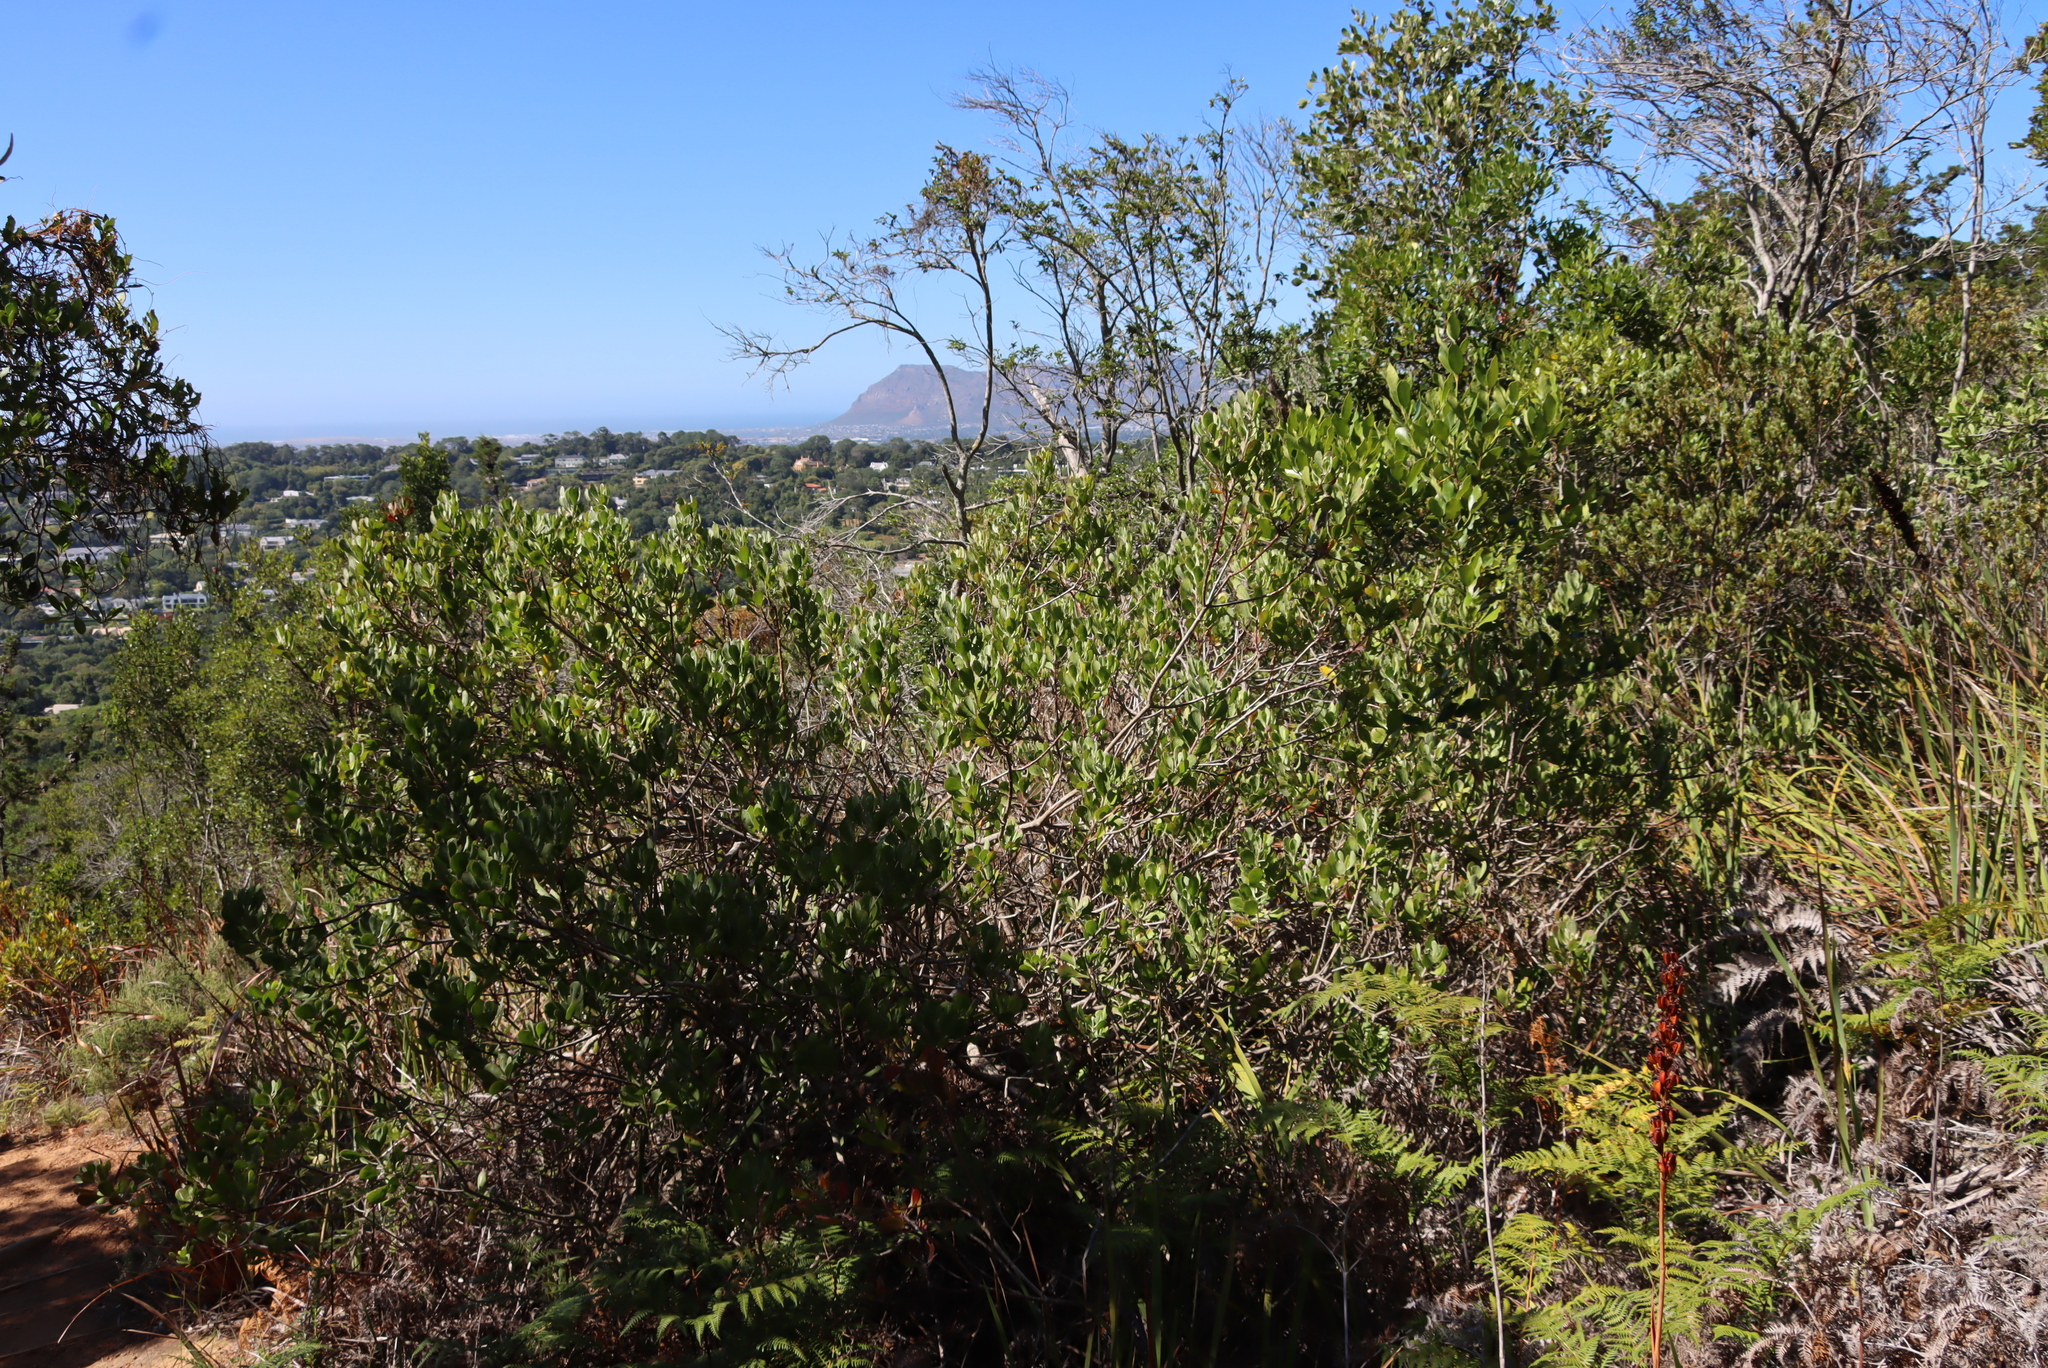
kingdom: Plantae
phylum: Tracheophyta
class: Magnoliopsida
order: Asterales
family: Asteraceae
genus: Osteospermum
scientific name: Osteospermum moniliferum
